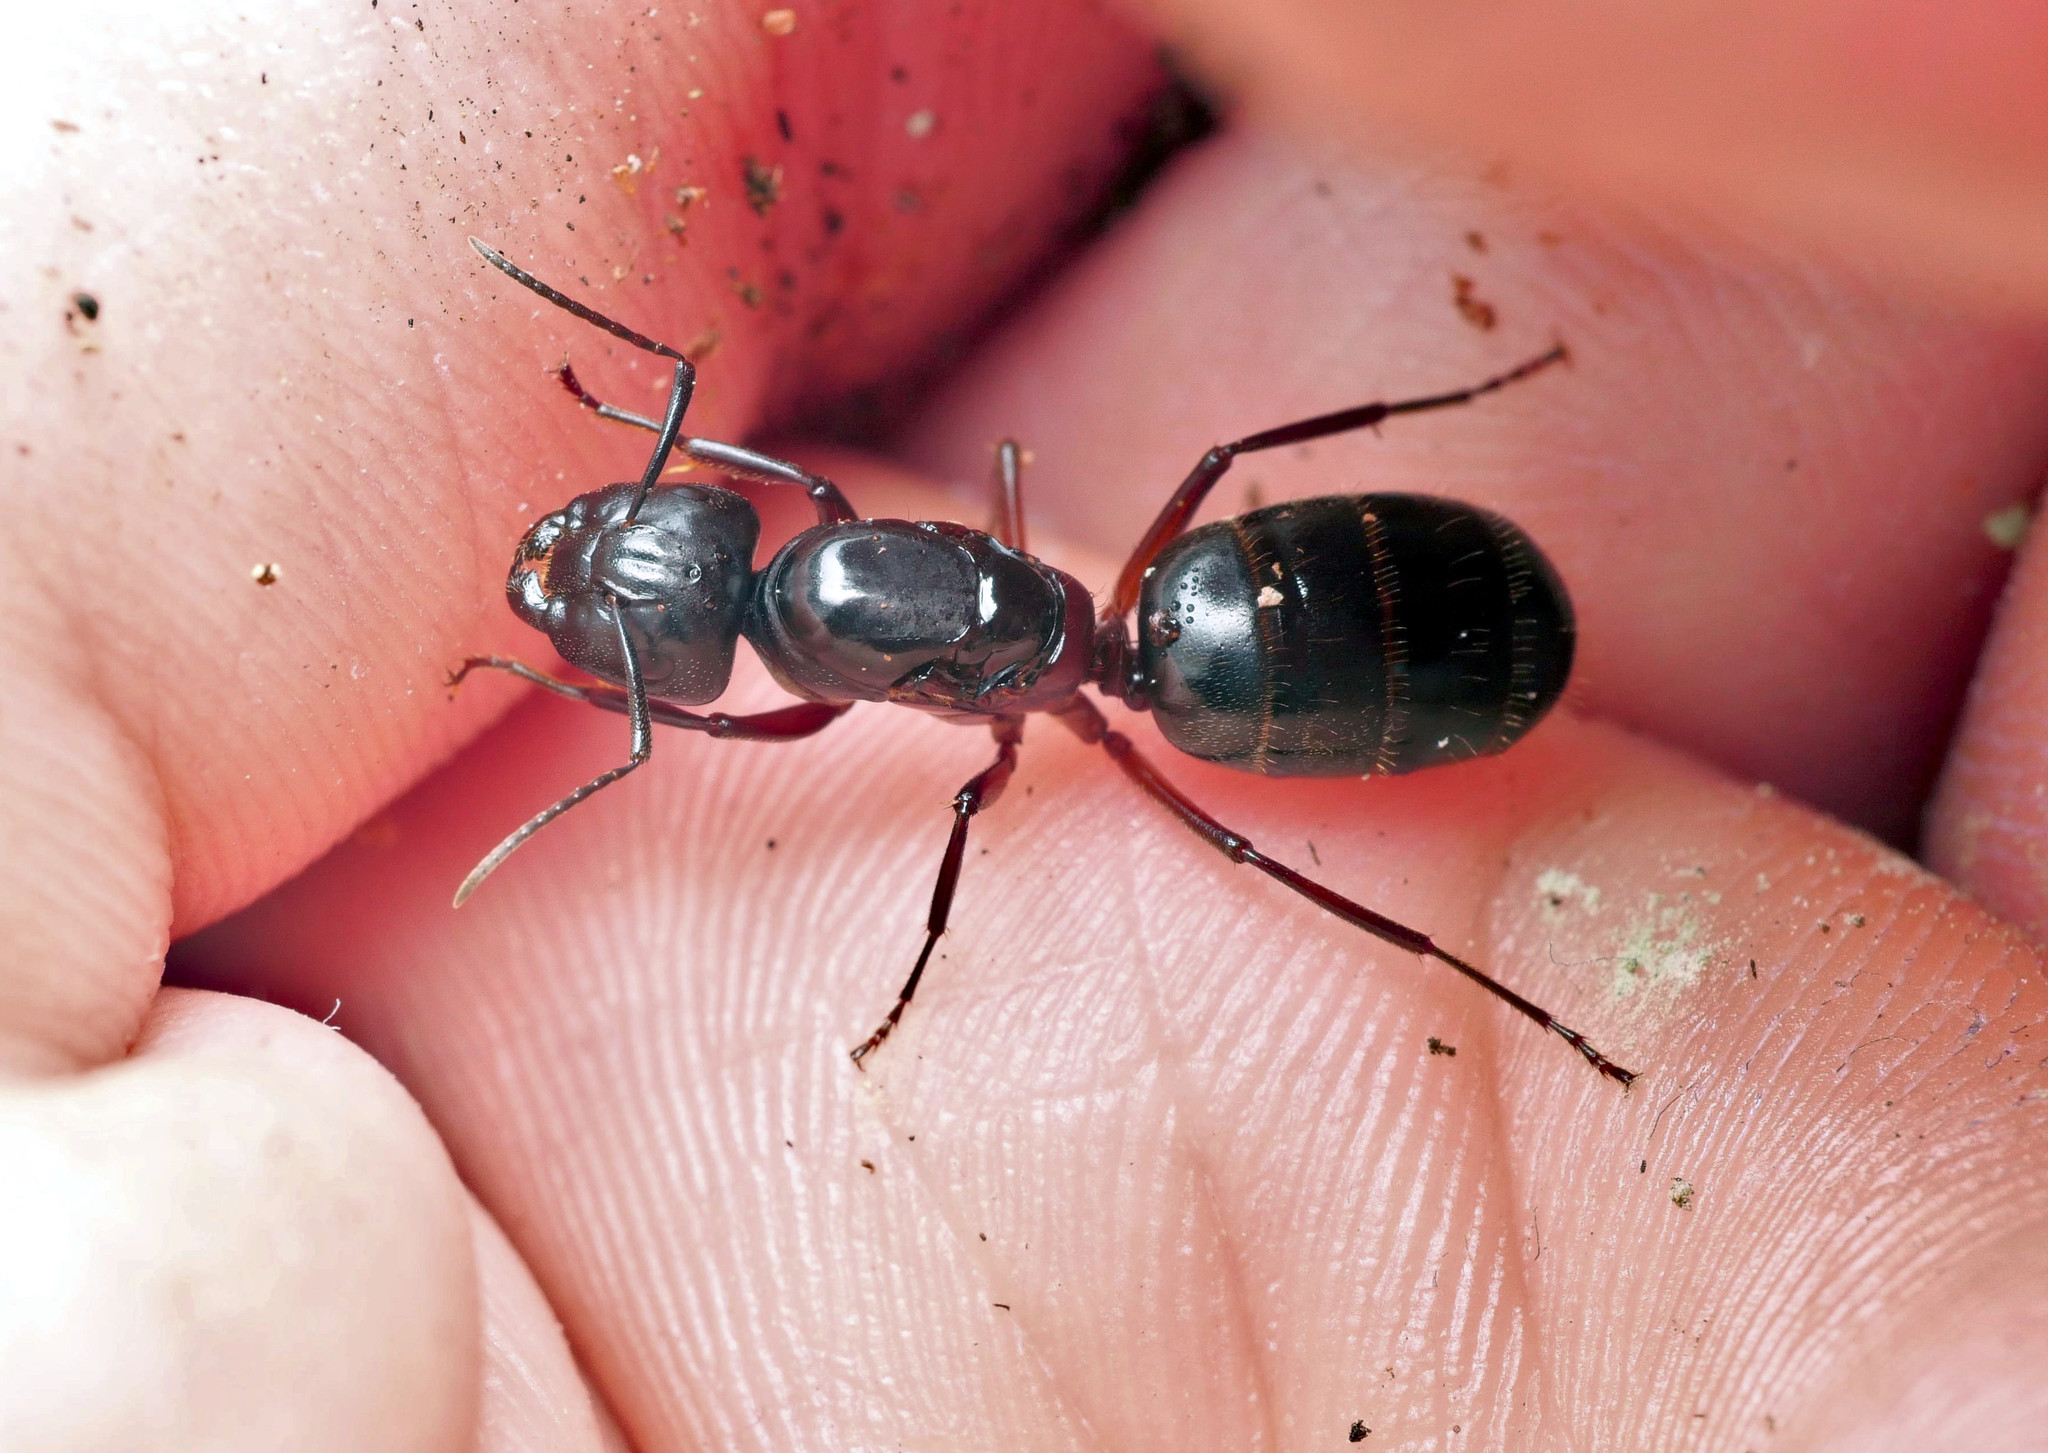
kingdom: Animalia
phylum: Arthropoda
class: Insecta
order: Hymenoptera
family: Formicidae
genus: Camponotus
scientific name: Camponotus herculeanus
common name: Hercules ant
